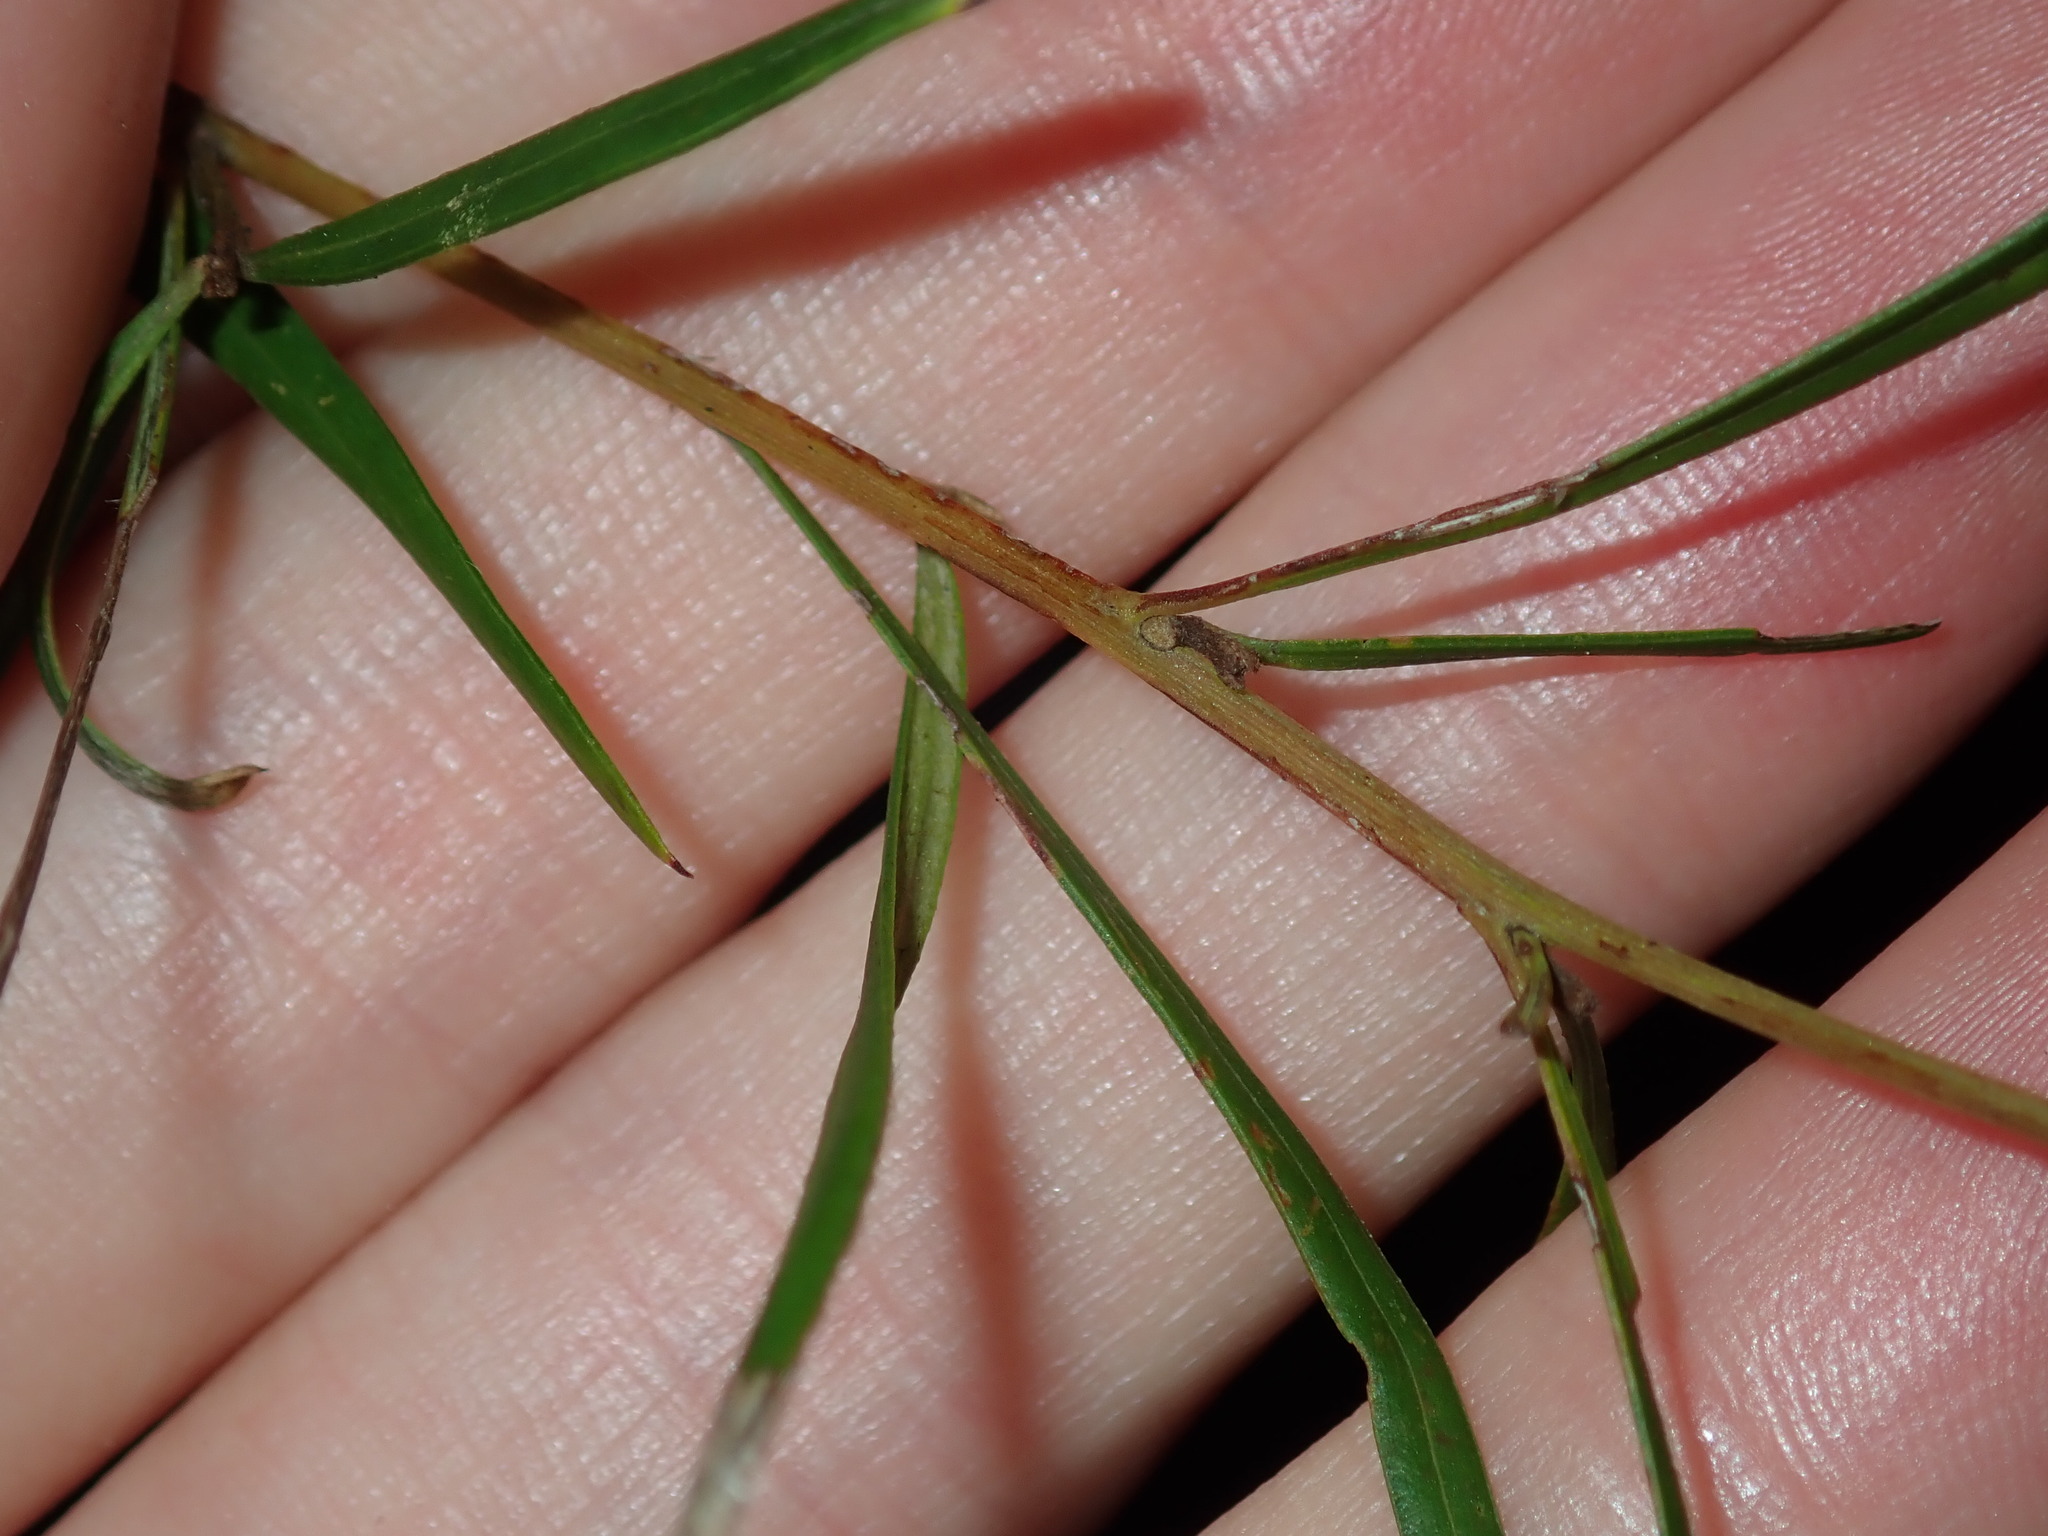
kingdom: Plantae
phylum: Tracheophyta
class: Magnoliopsida
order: Proteales
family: Proteaceae
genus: Grevillea
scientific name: Grevillea linearifolia
